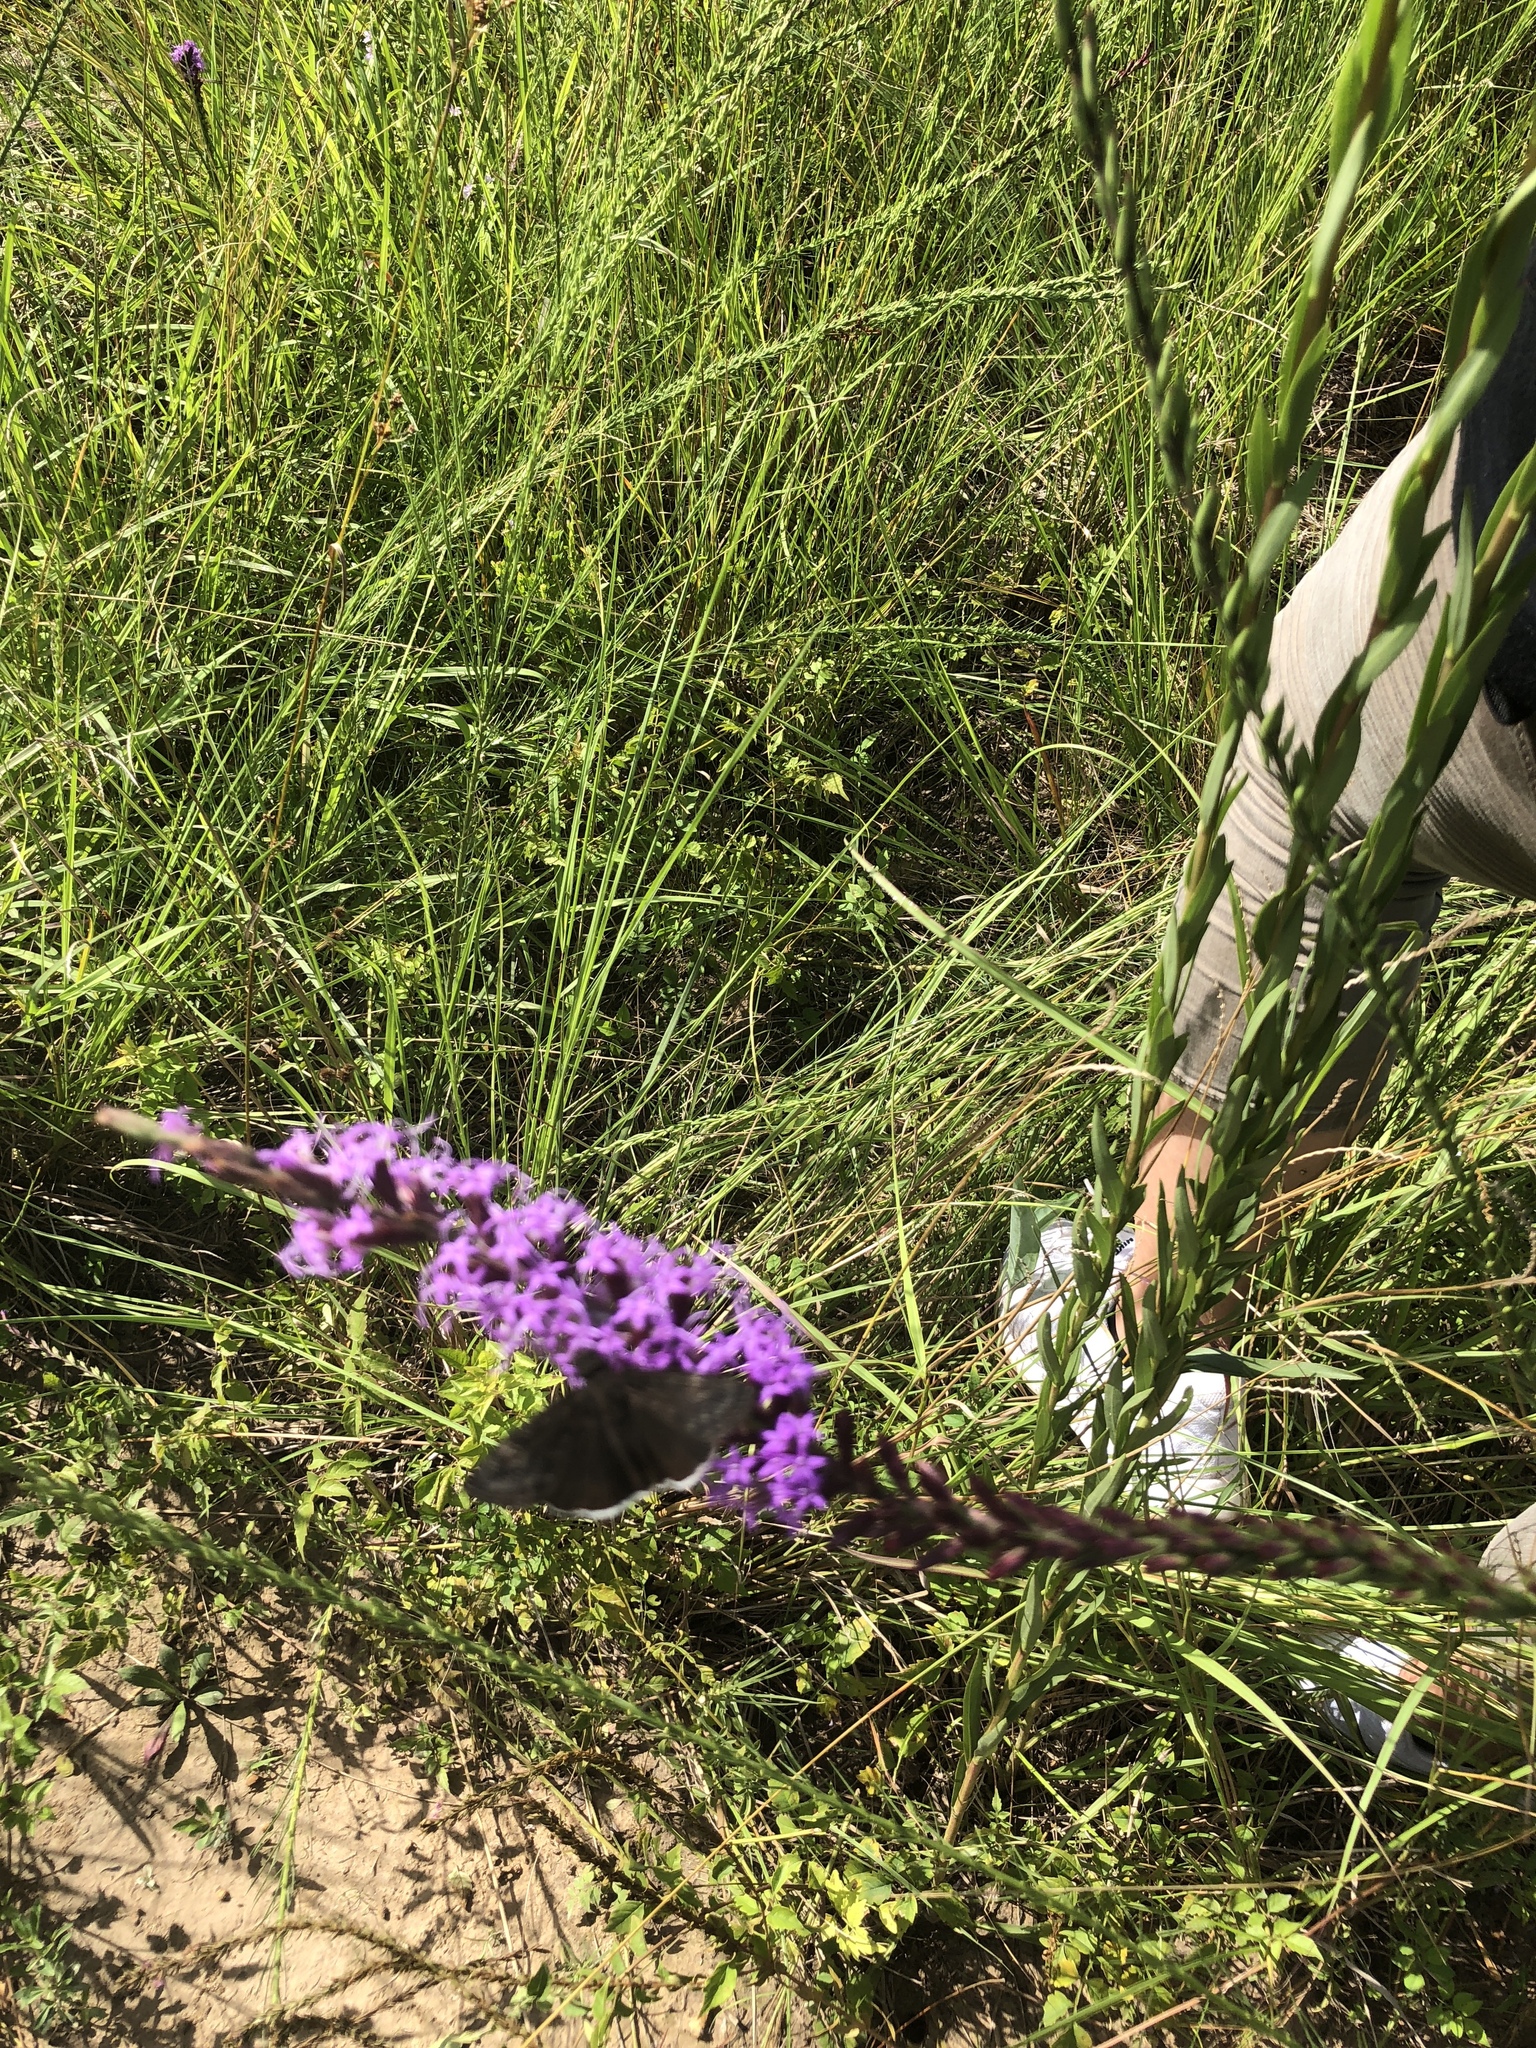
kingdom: Animalia
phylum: Arthropoda
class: Insecta
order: Lepidoptera
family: Hesperiidae
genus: Erynnis
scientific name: Erynnis funeralis
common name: Funereal duskywing
